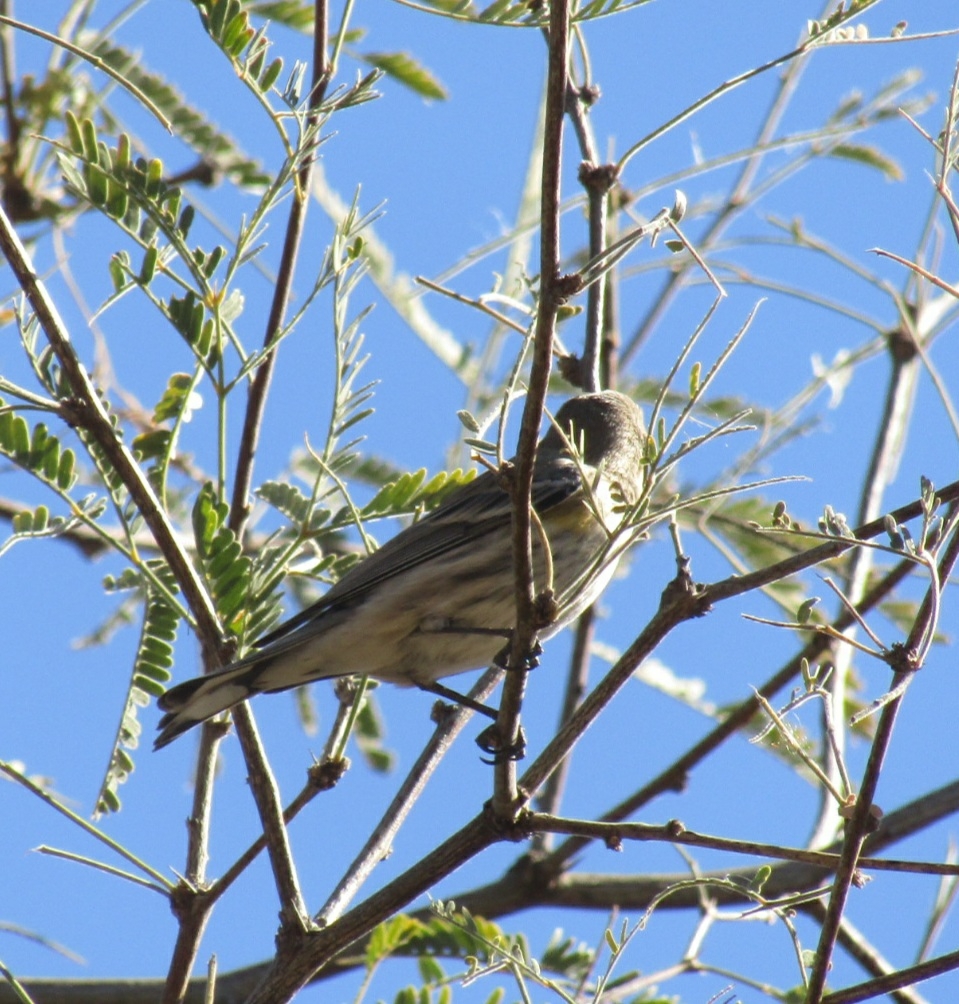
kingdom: Animalia
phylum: Chordata
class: Aves
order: Passeriformes
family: Parulidae
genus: Setophaga
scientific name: Setophaga coronata
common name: Myrtle warbler
